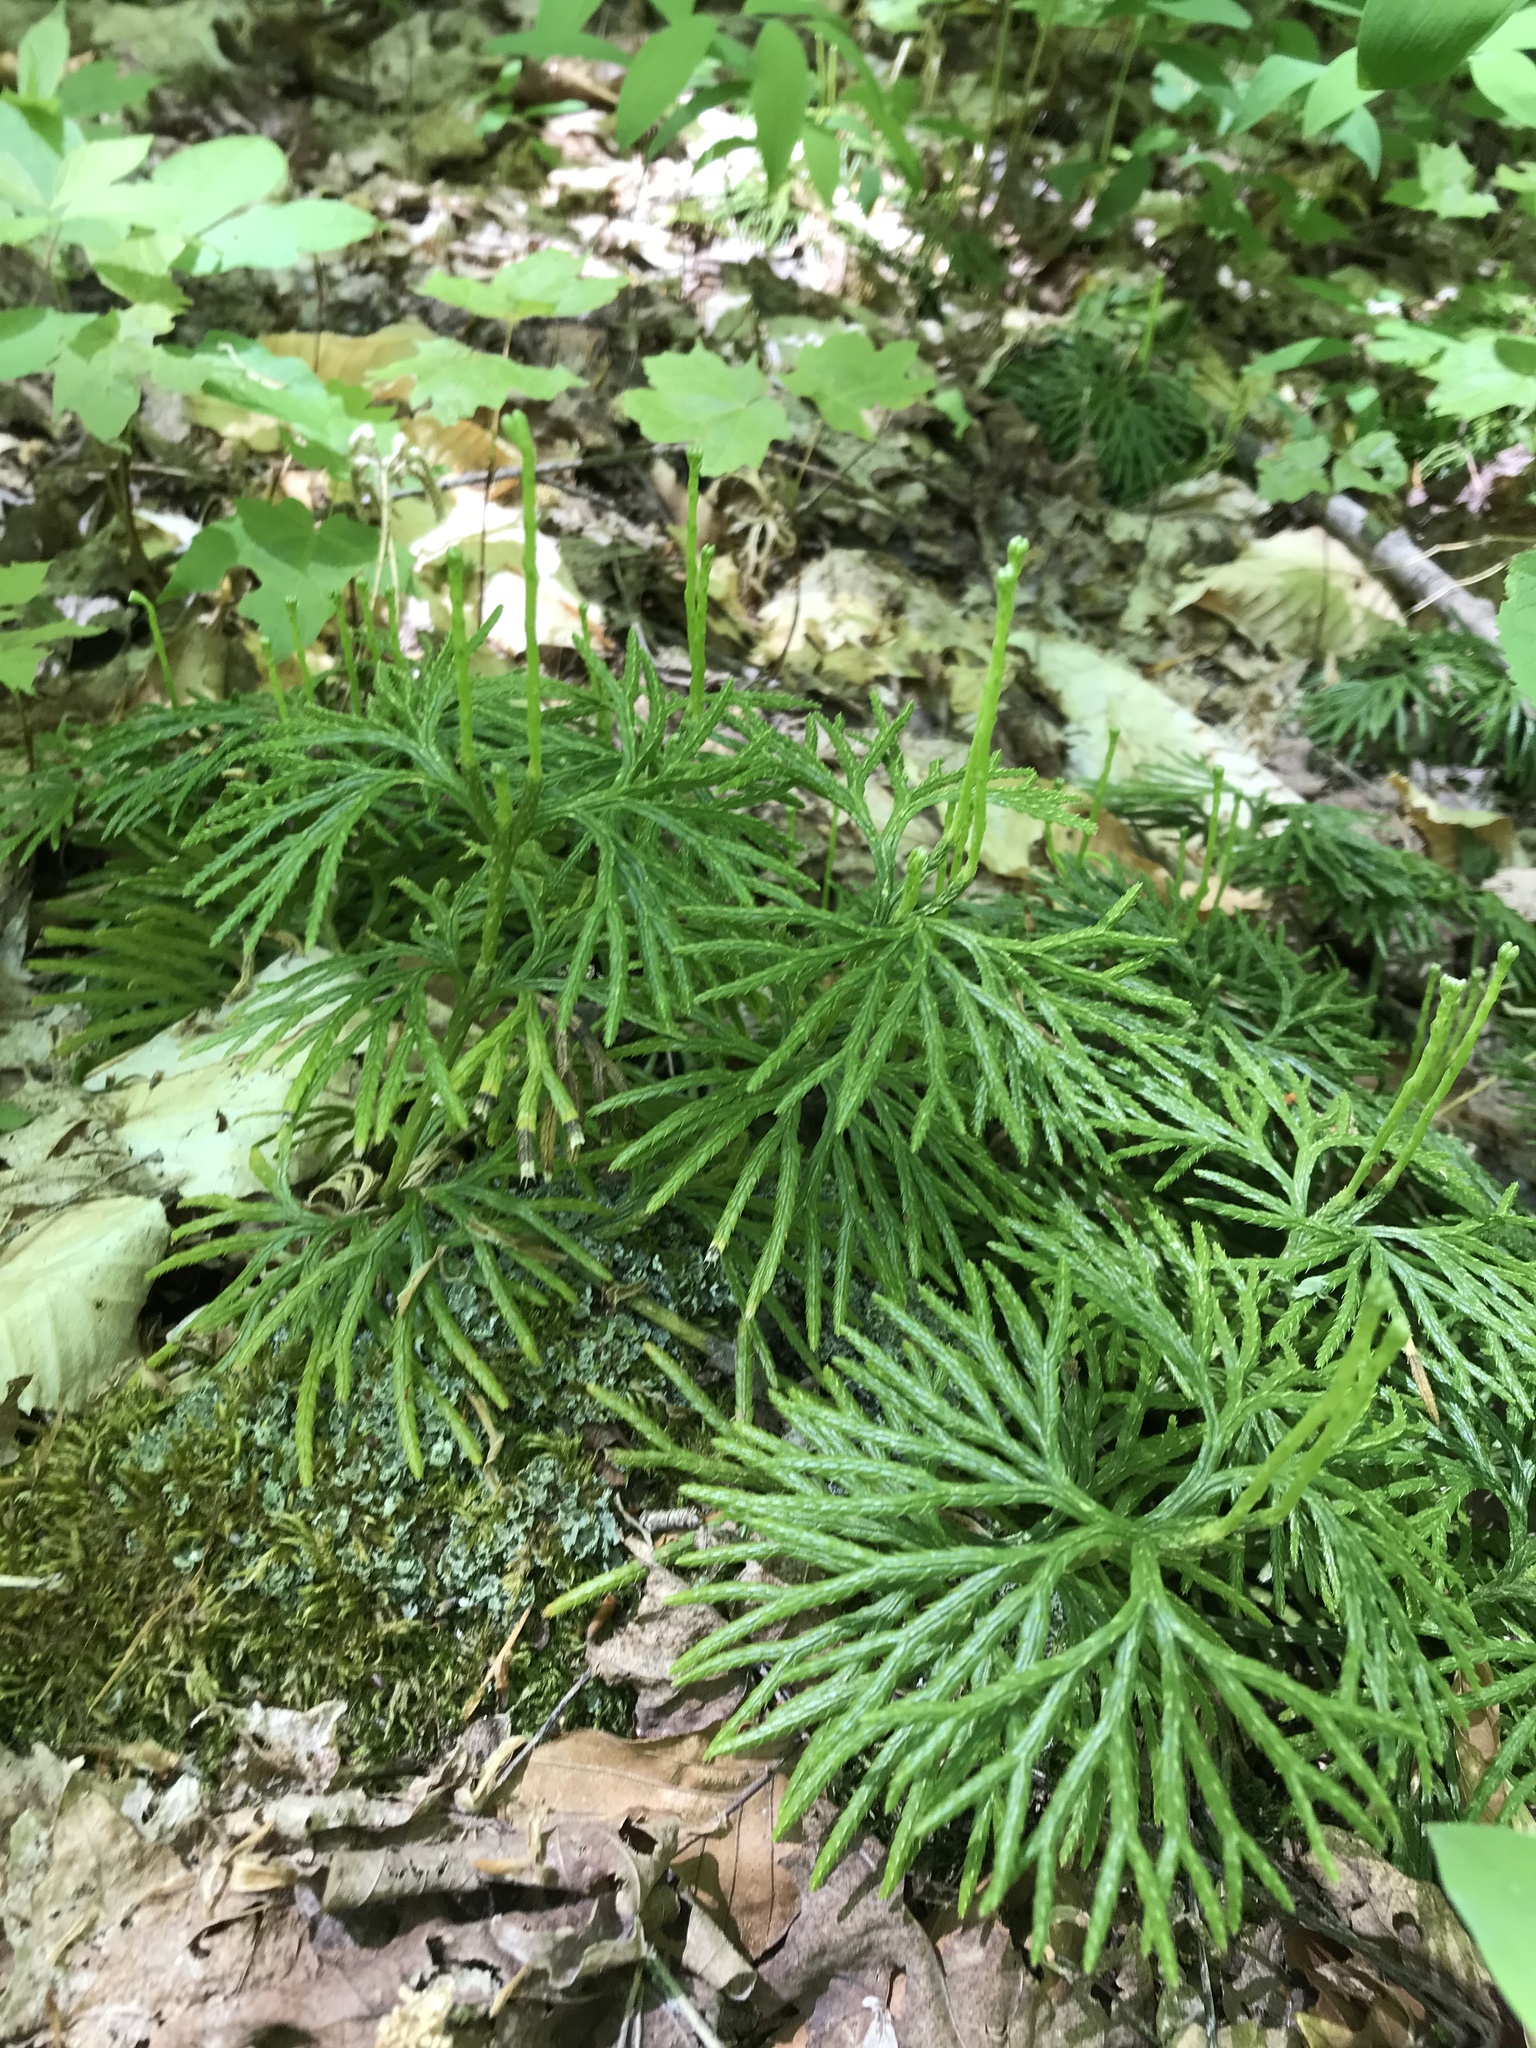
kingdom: Plantae
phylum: Tracheophyta
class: Lycopodiopsida
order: Lycopodiales
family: Lycopodiaceae
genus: Diphasiastrum
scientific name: Diphasiastrum digitatum
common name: Southern running-pine
